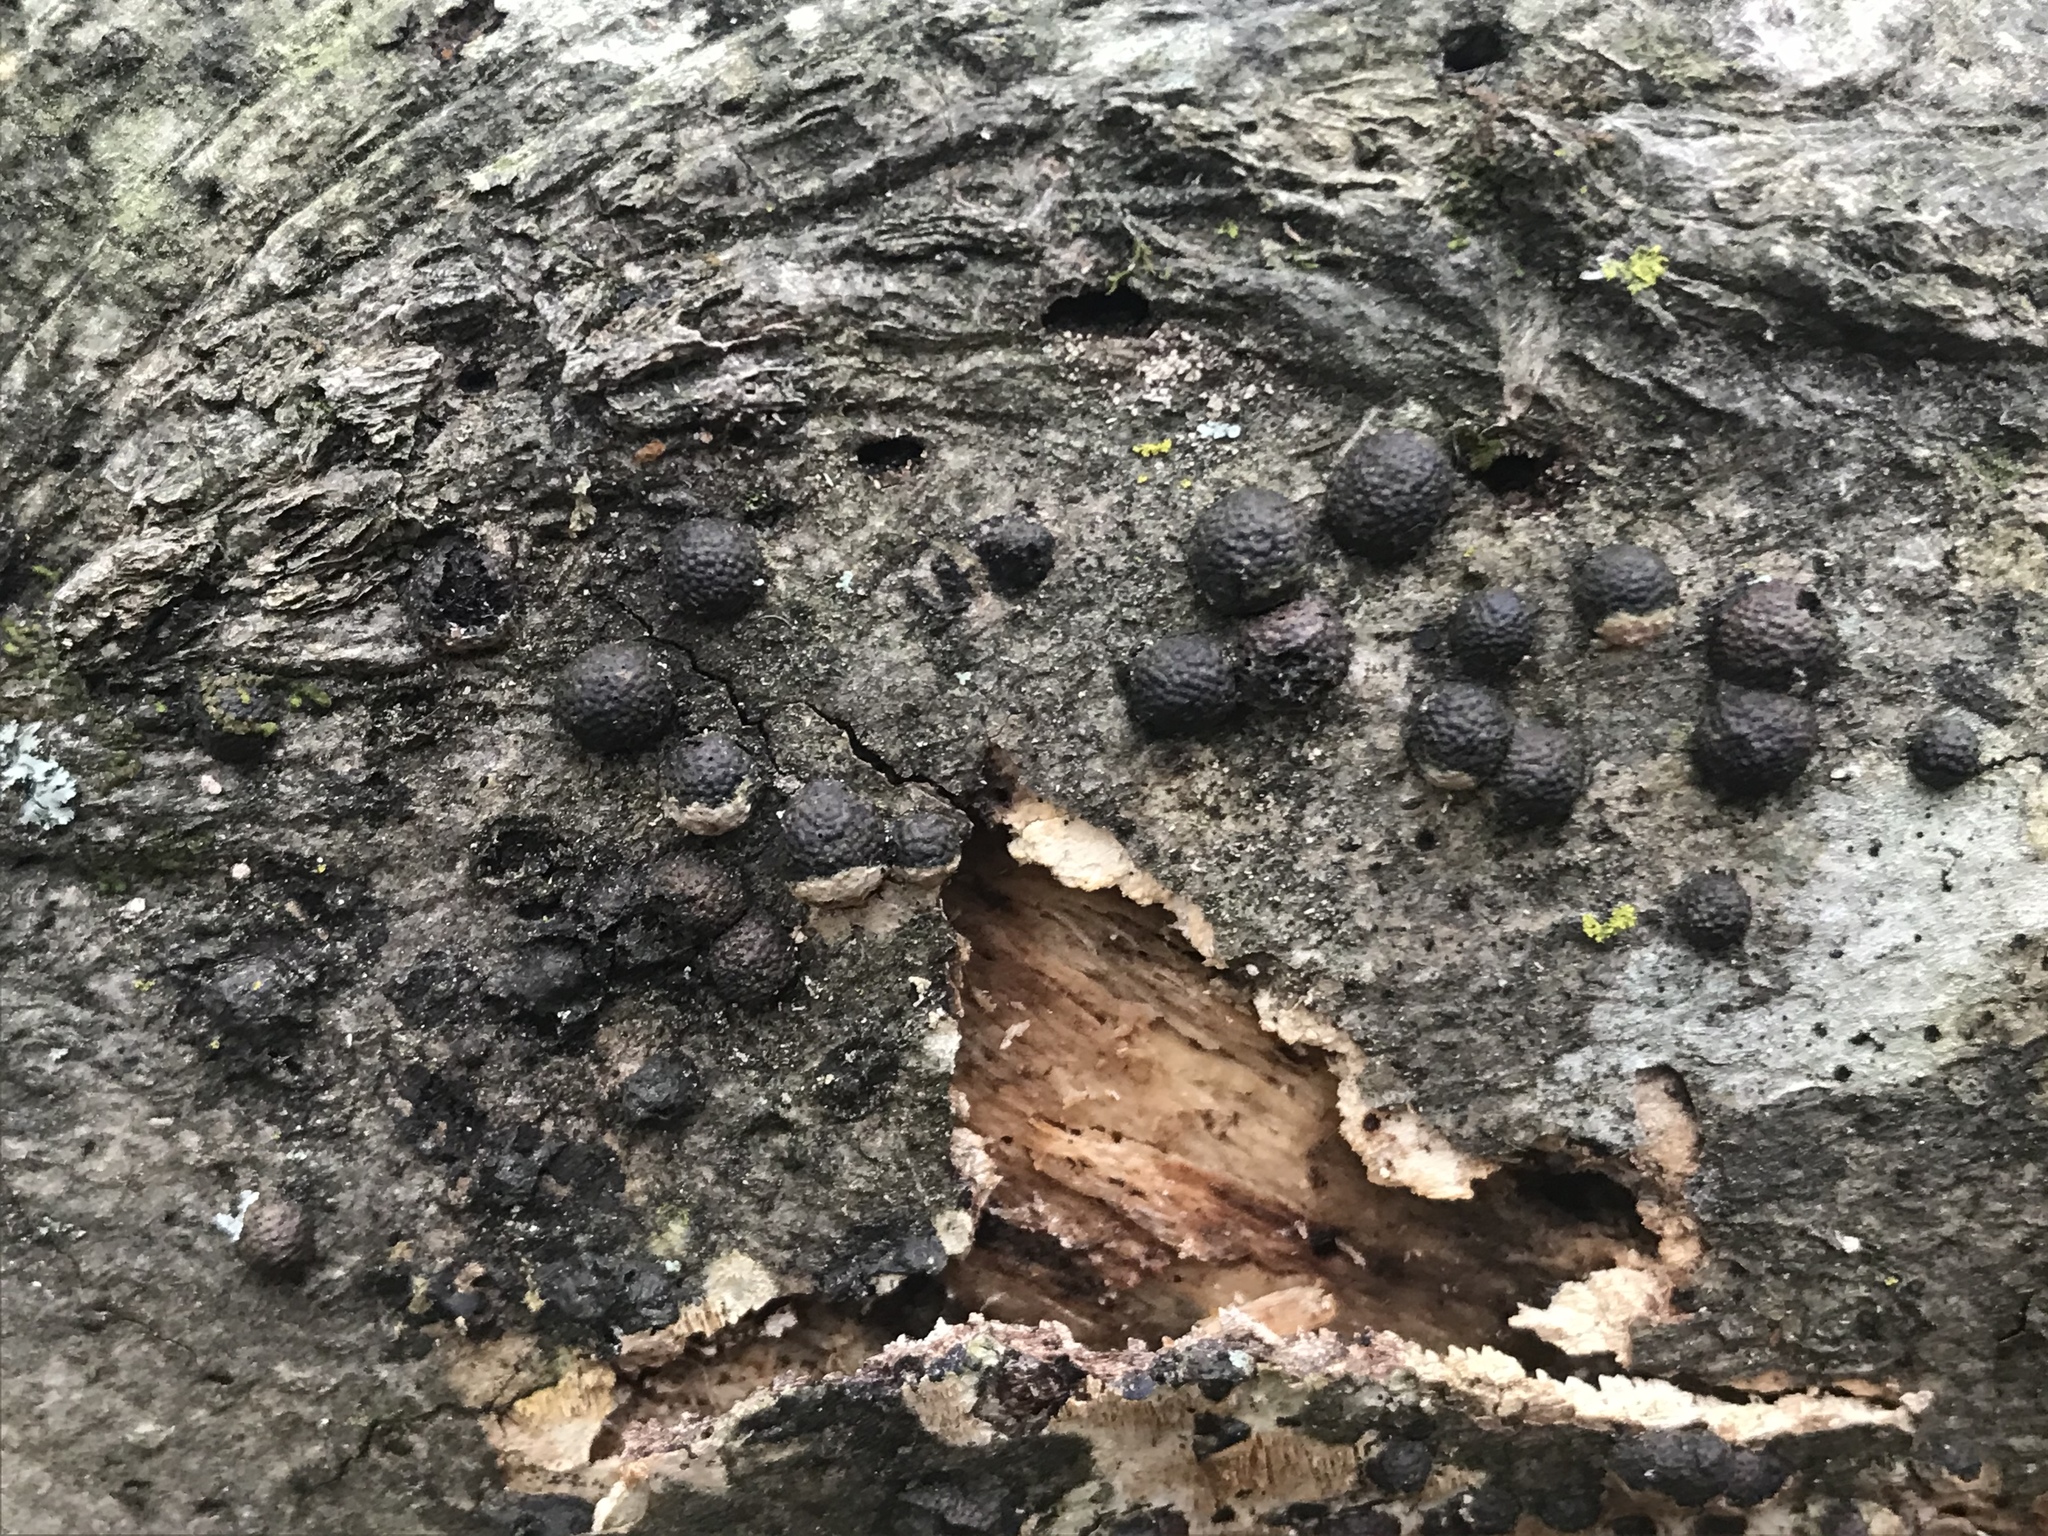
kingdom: Fungi
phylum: Ascomycota
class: Sordariomycetes
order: Xylariales
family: Hypoxylaceae
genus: Annulohypoxylon
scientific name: Annulohypoxylon thouarsianum
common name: Cramp balls
